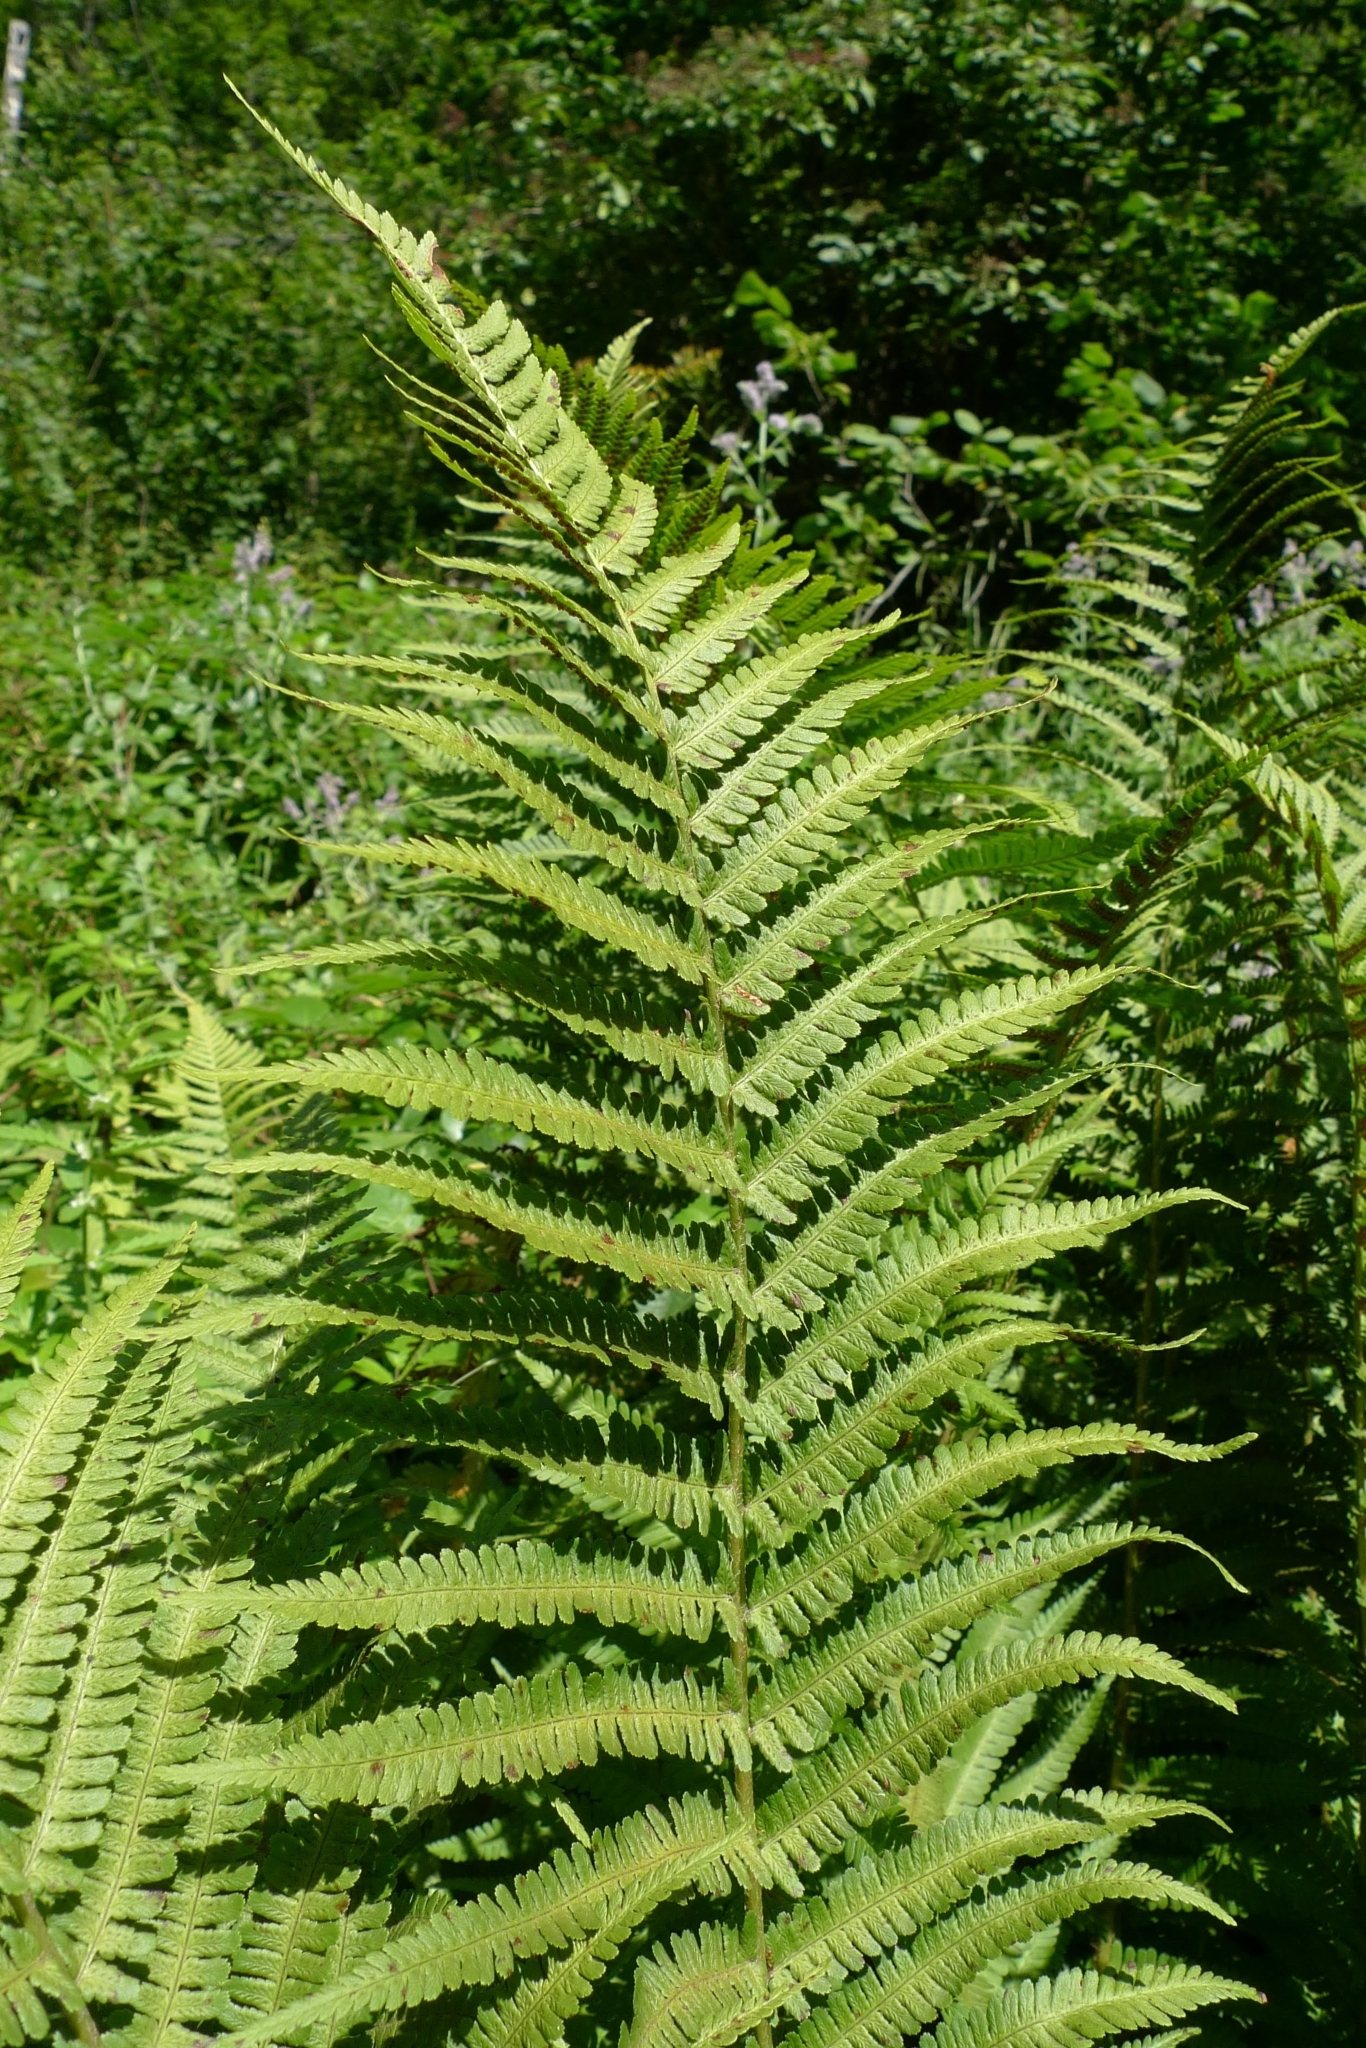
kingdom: Plantae
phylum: Tracheophyta
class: Polypodiopsida
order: Polypodiales
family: Dryopteridaceae
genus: Dryopteris
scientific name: Dryopteris filix-mas
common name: Male fern
